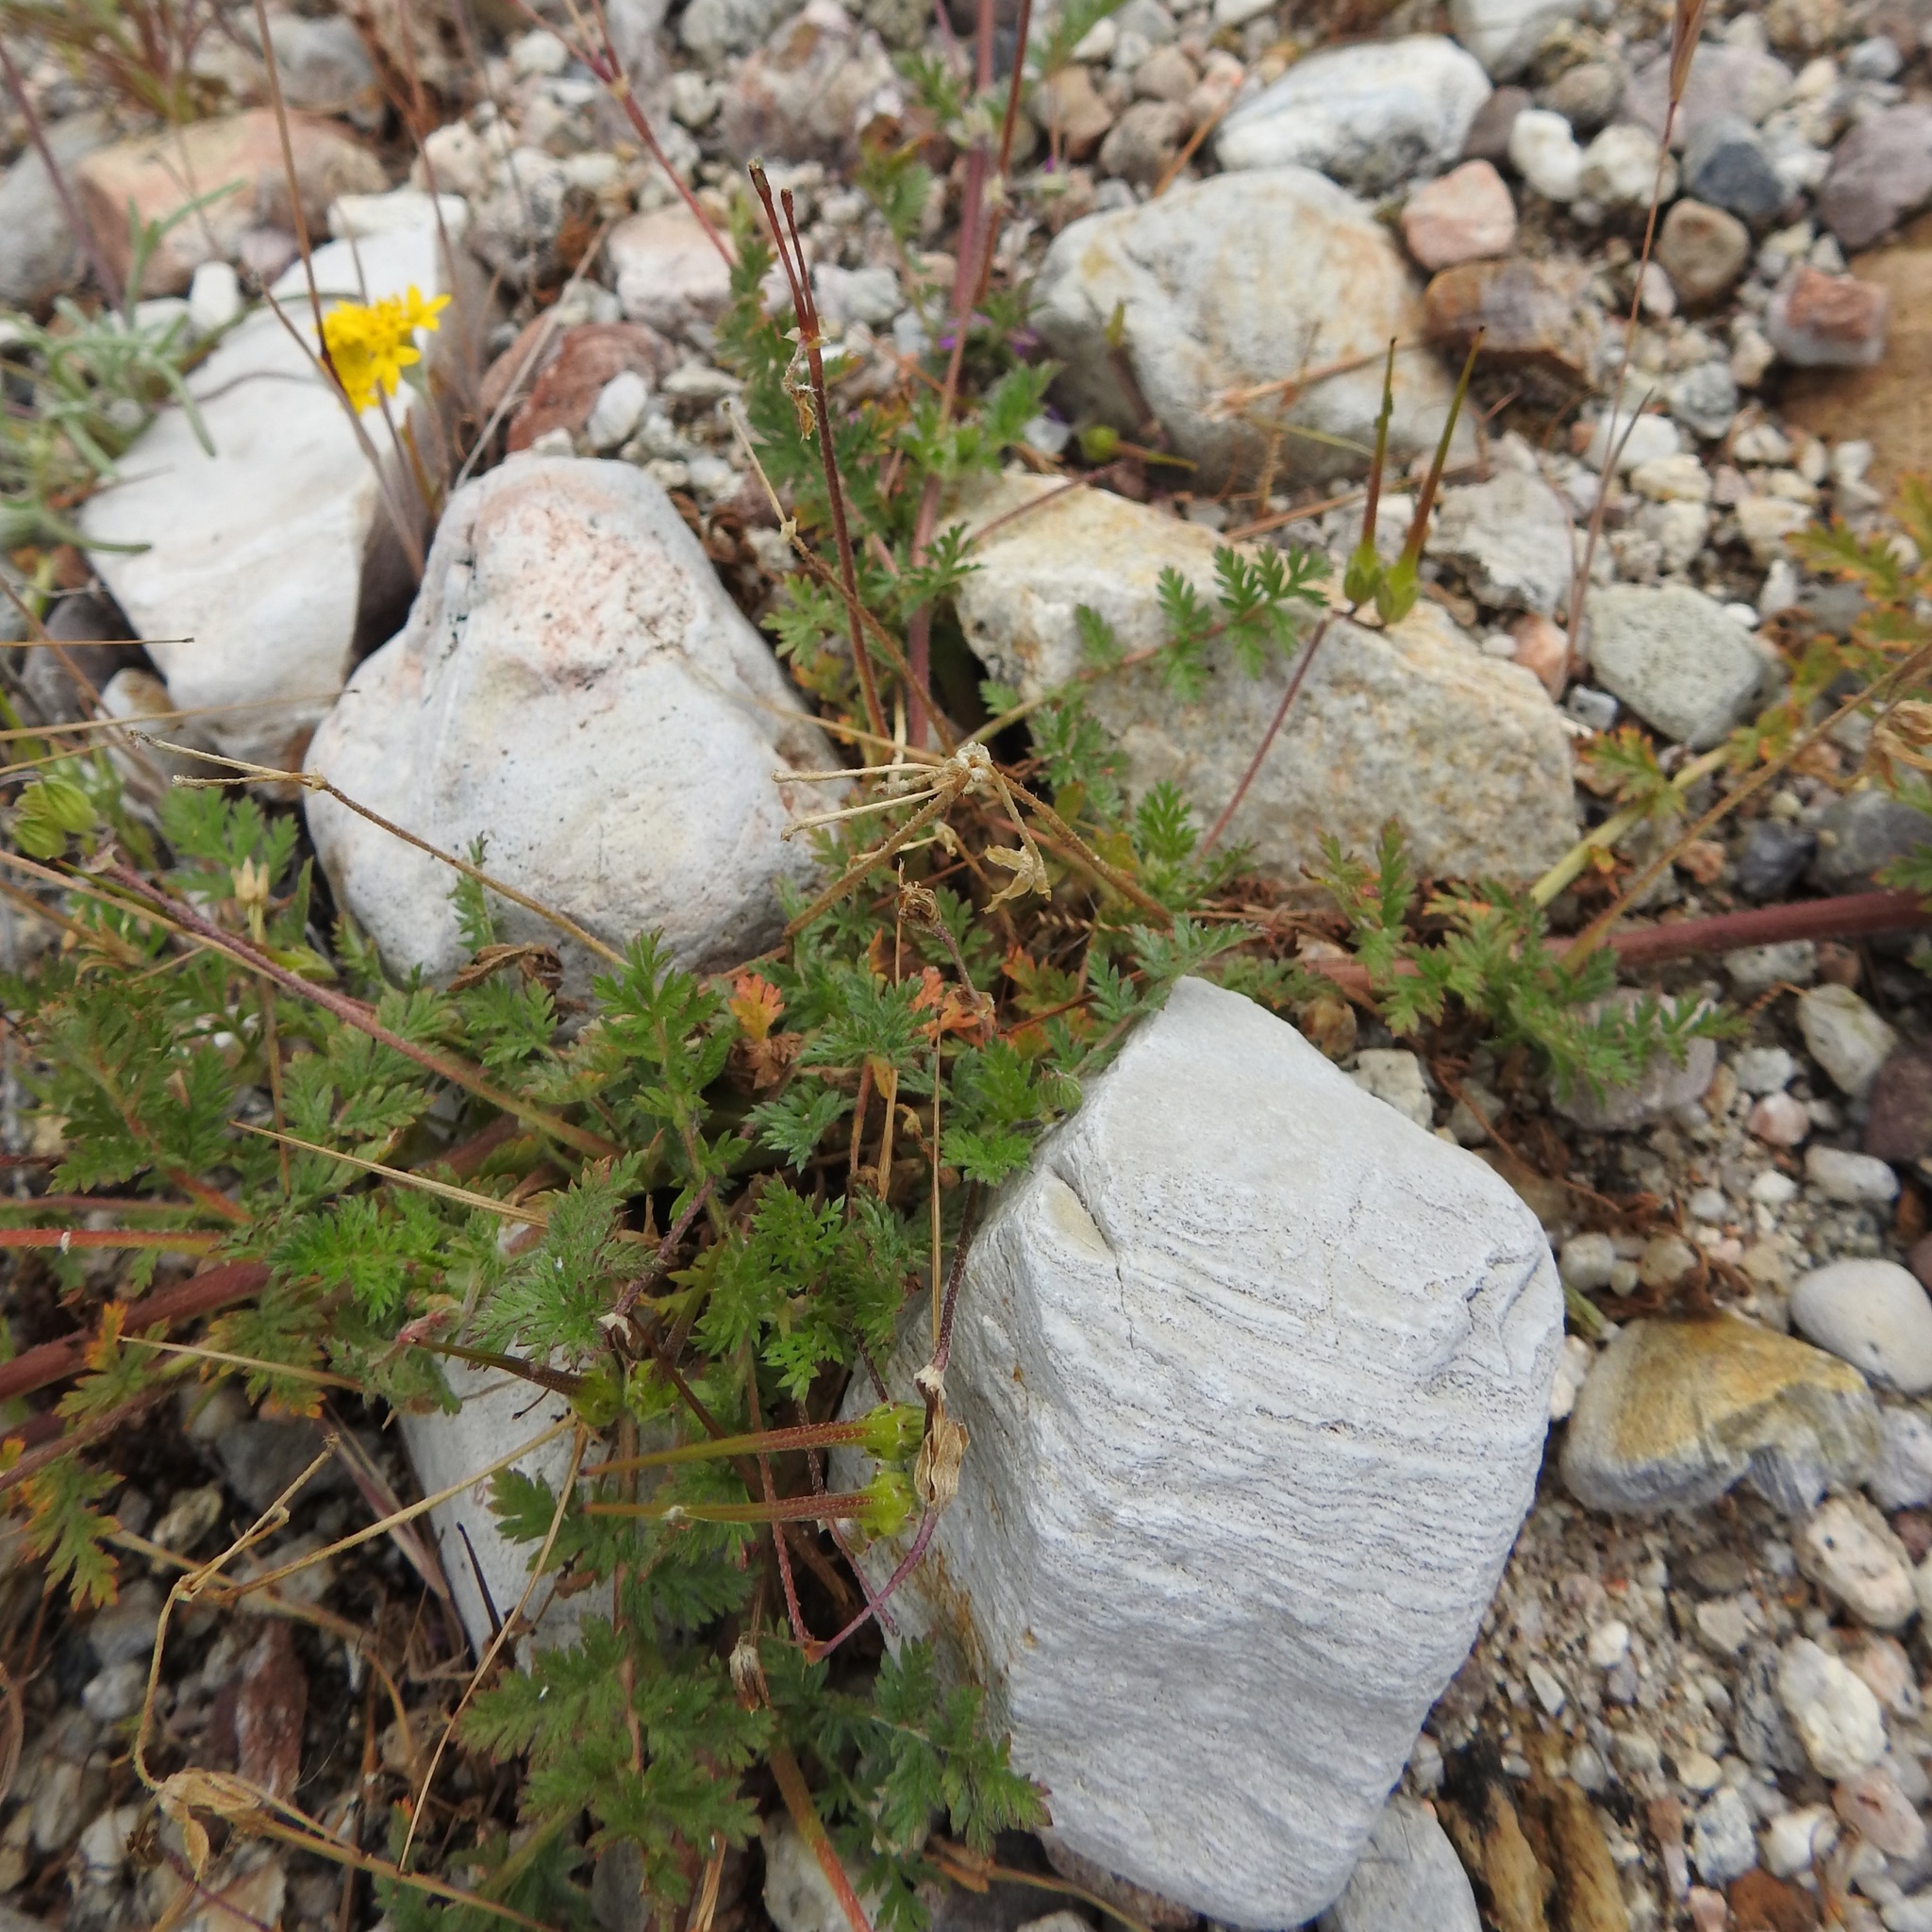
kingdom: Plantae
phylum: Tracheophyta
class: Magnoliopsida
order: Geraniales
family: Geraniaceae
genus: Erodium
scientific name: Erodium cicutarium
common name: Common stork's-bill
